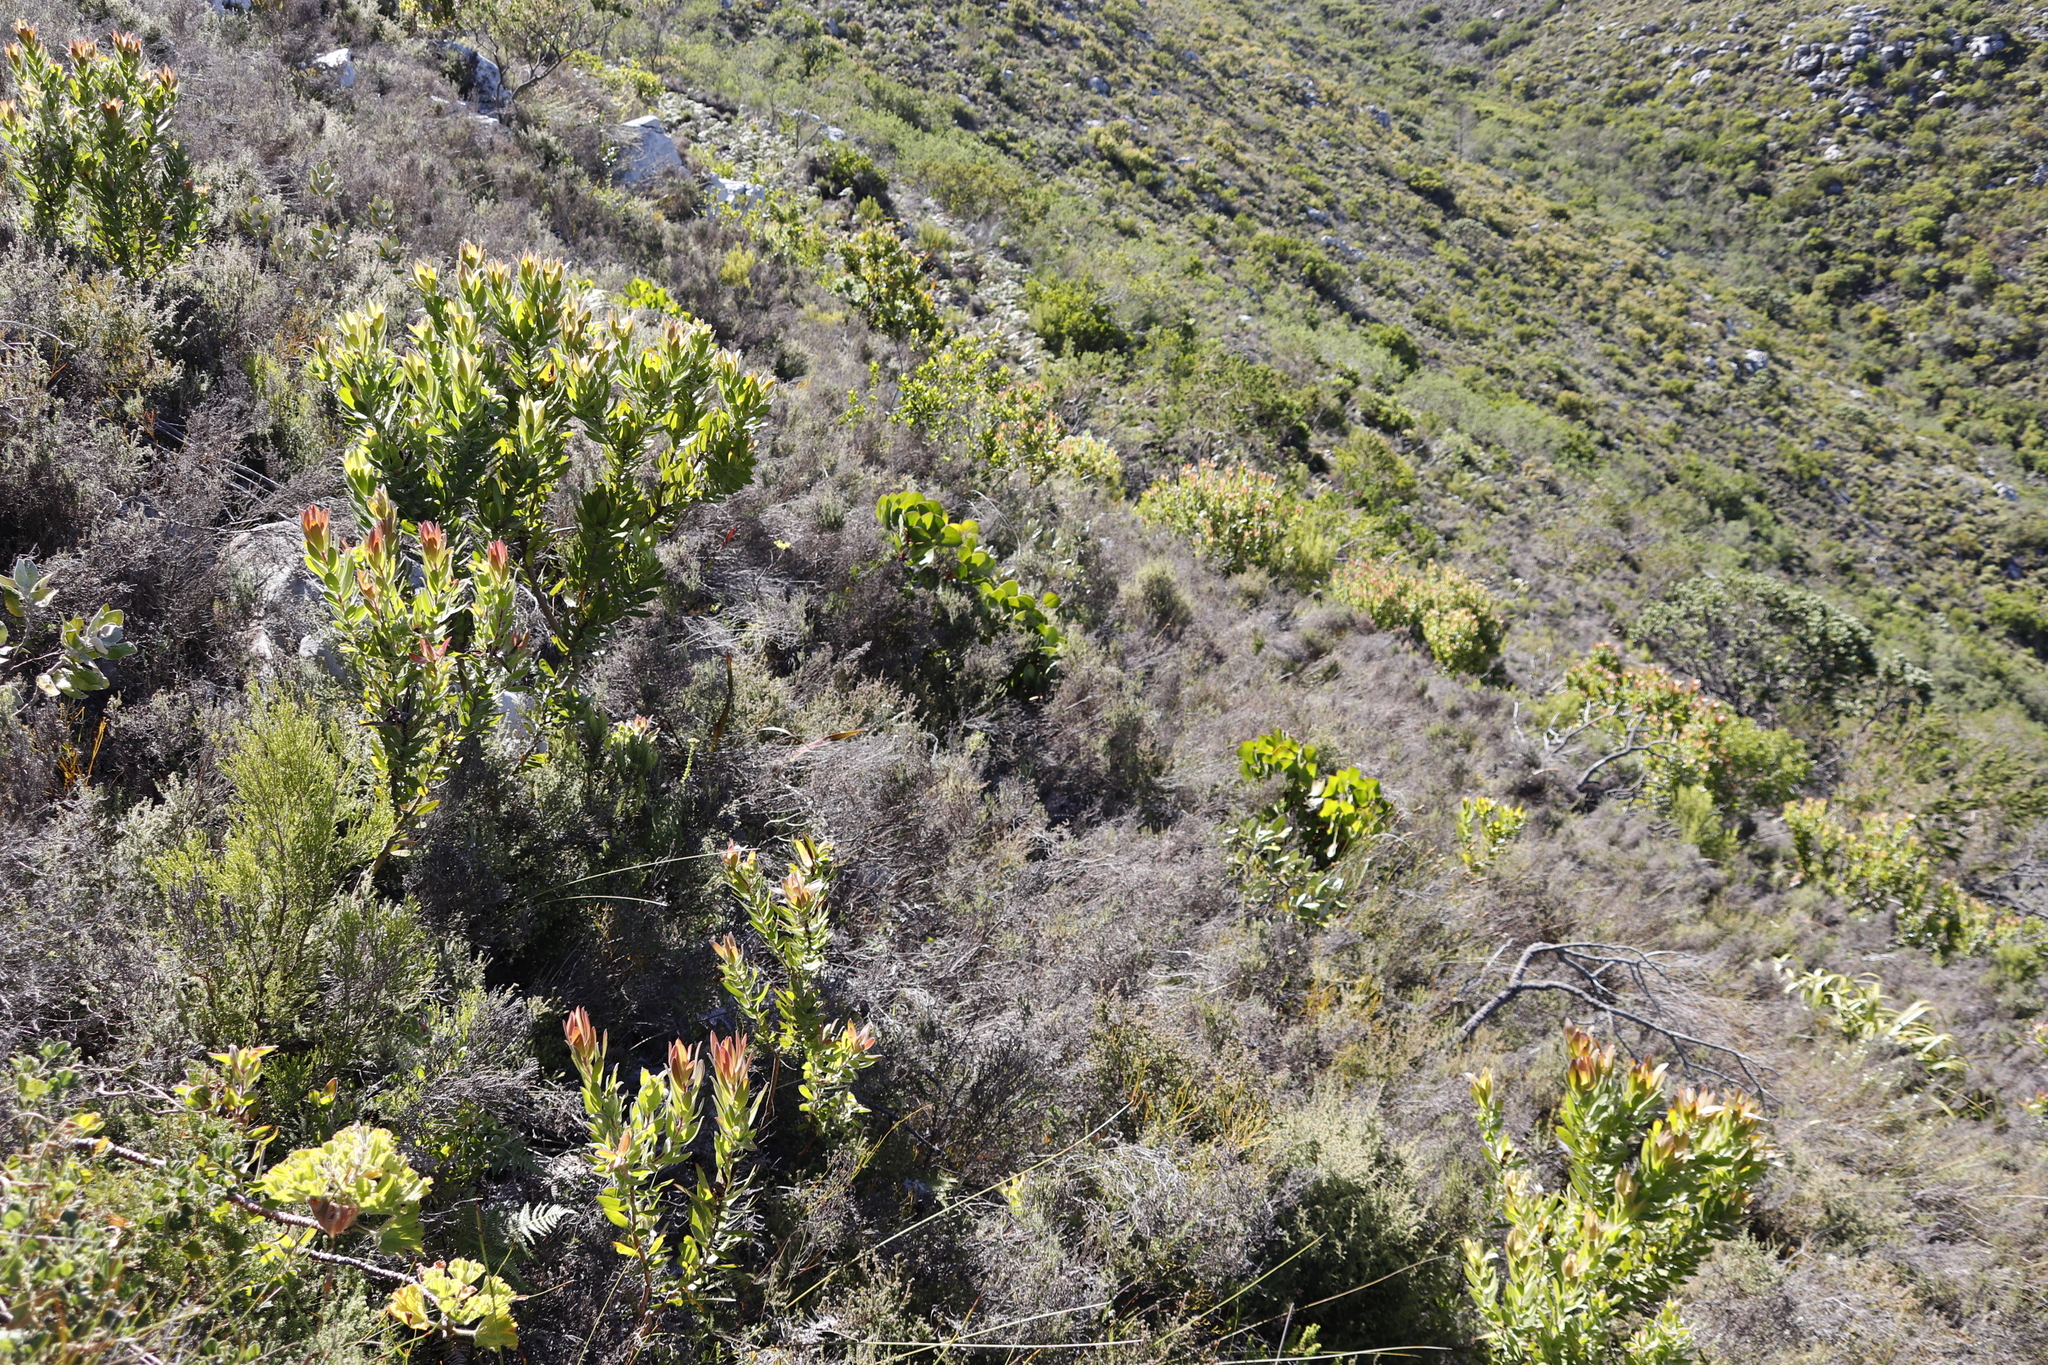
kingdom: Plantae
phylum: Tracheophyta
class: Magnoliopsida
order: Proteales
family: Proteaceae
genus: Protea
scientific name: Protea cynaroides
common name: King protea
